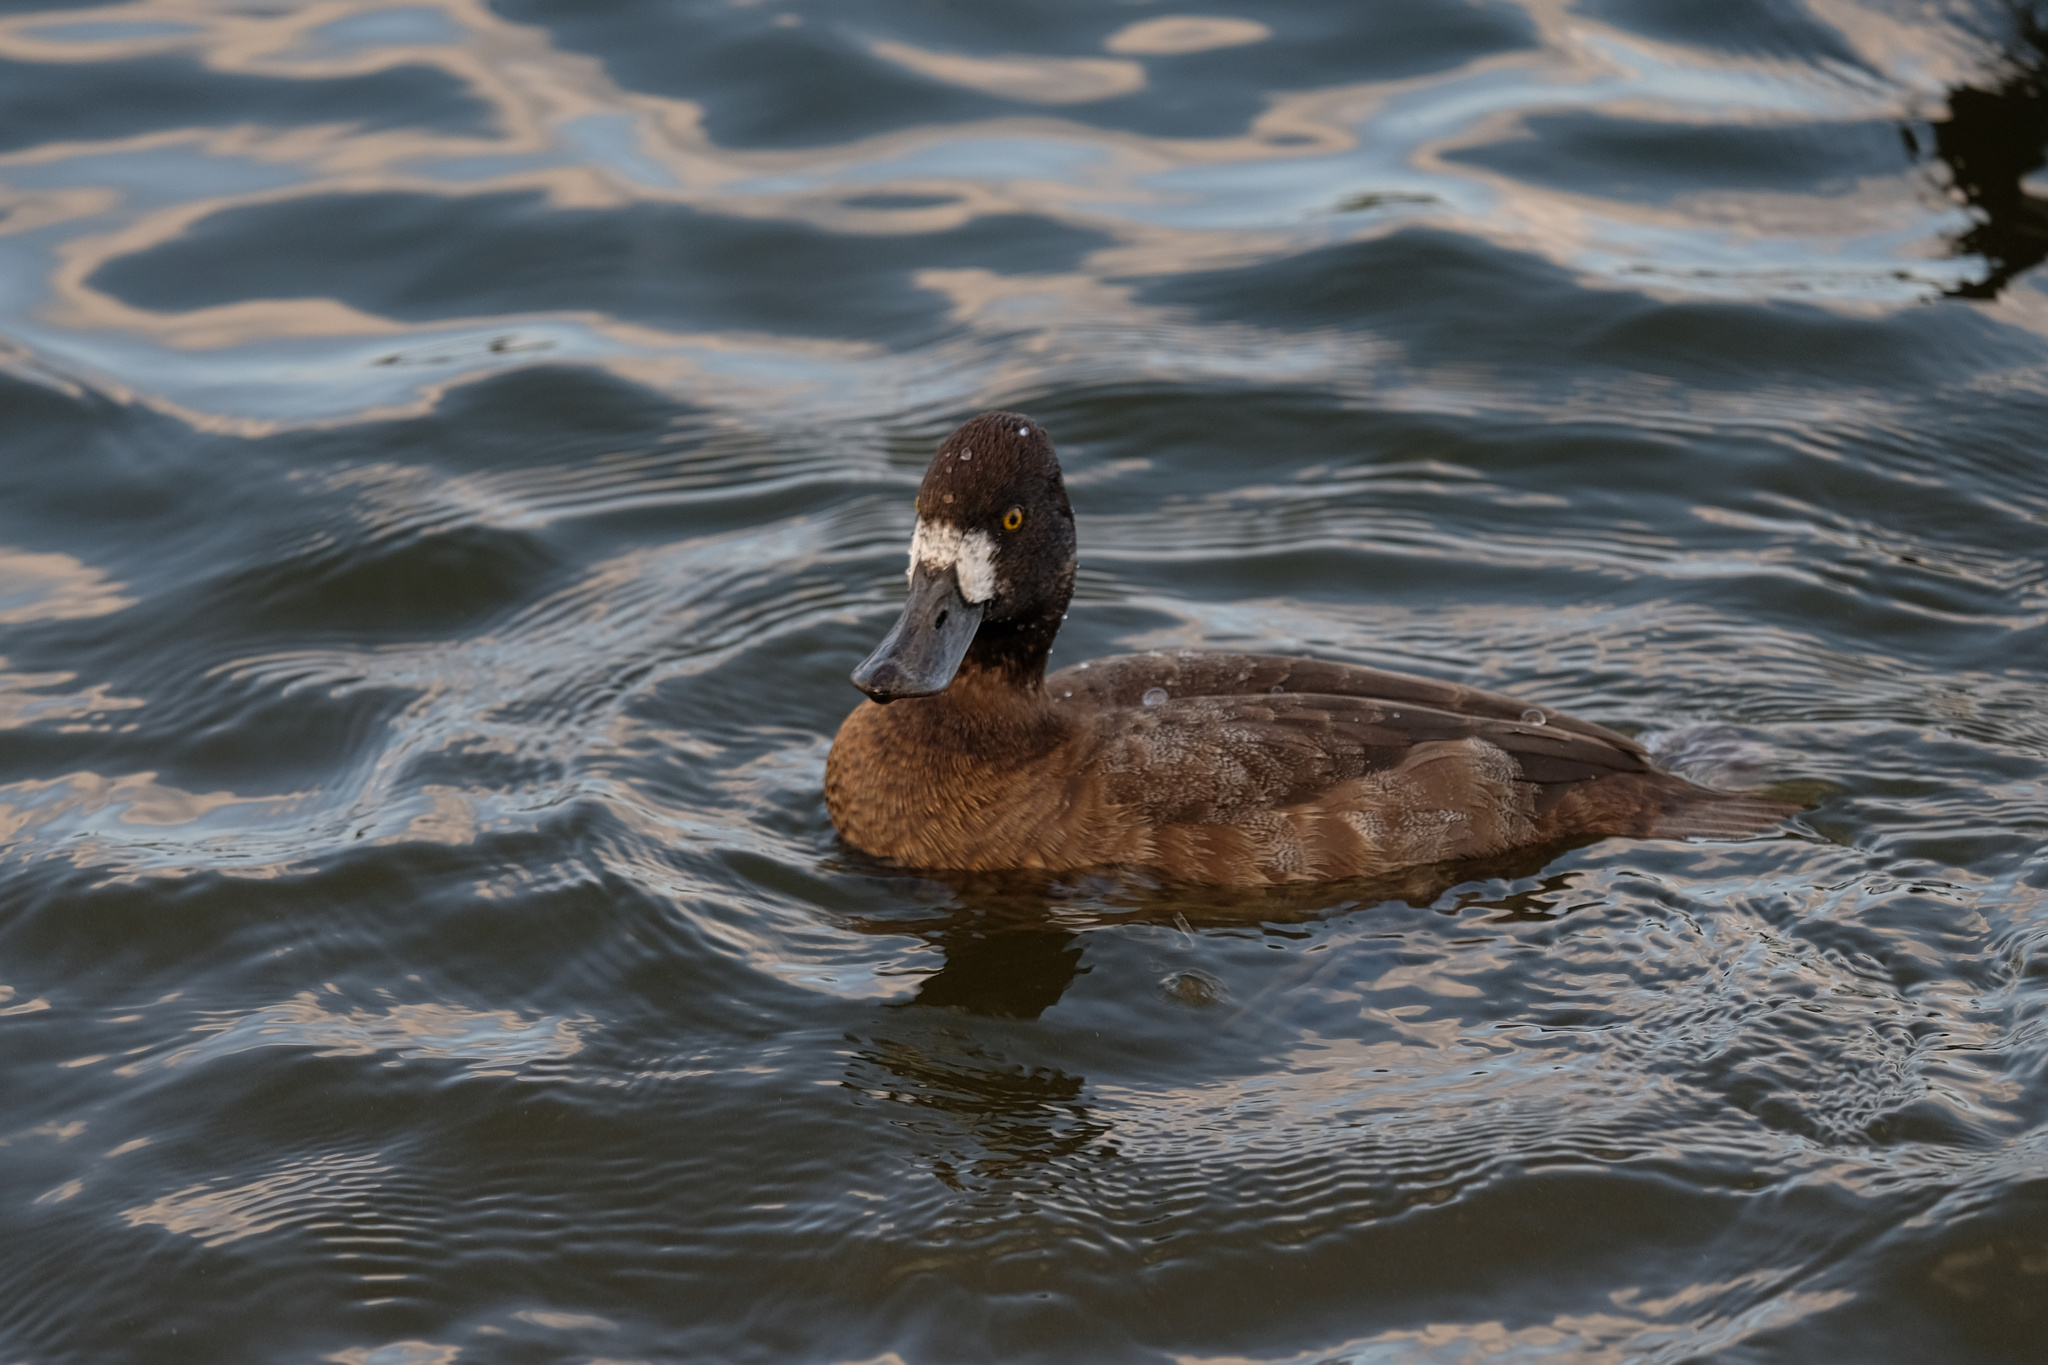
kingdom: Animalia
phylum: Chordata
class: Aves
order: Anseriformes
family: Anatidae
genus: Aythya
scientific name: Aythya affinis
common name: Lesser scaup
